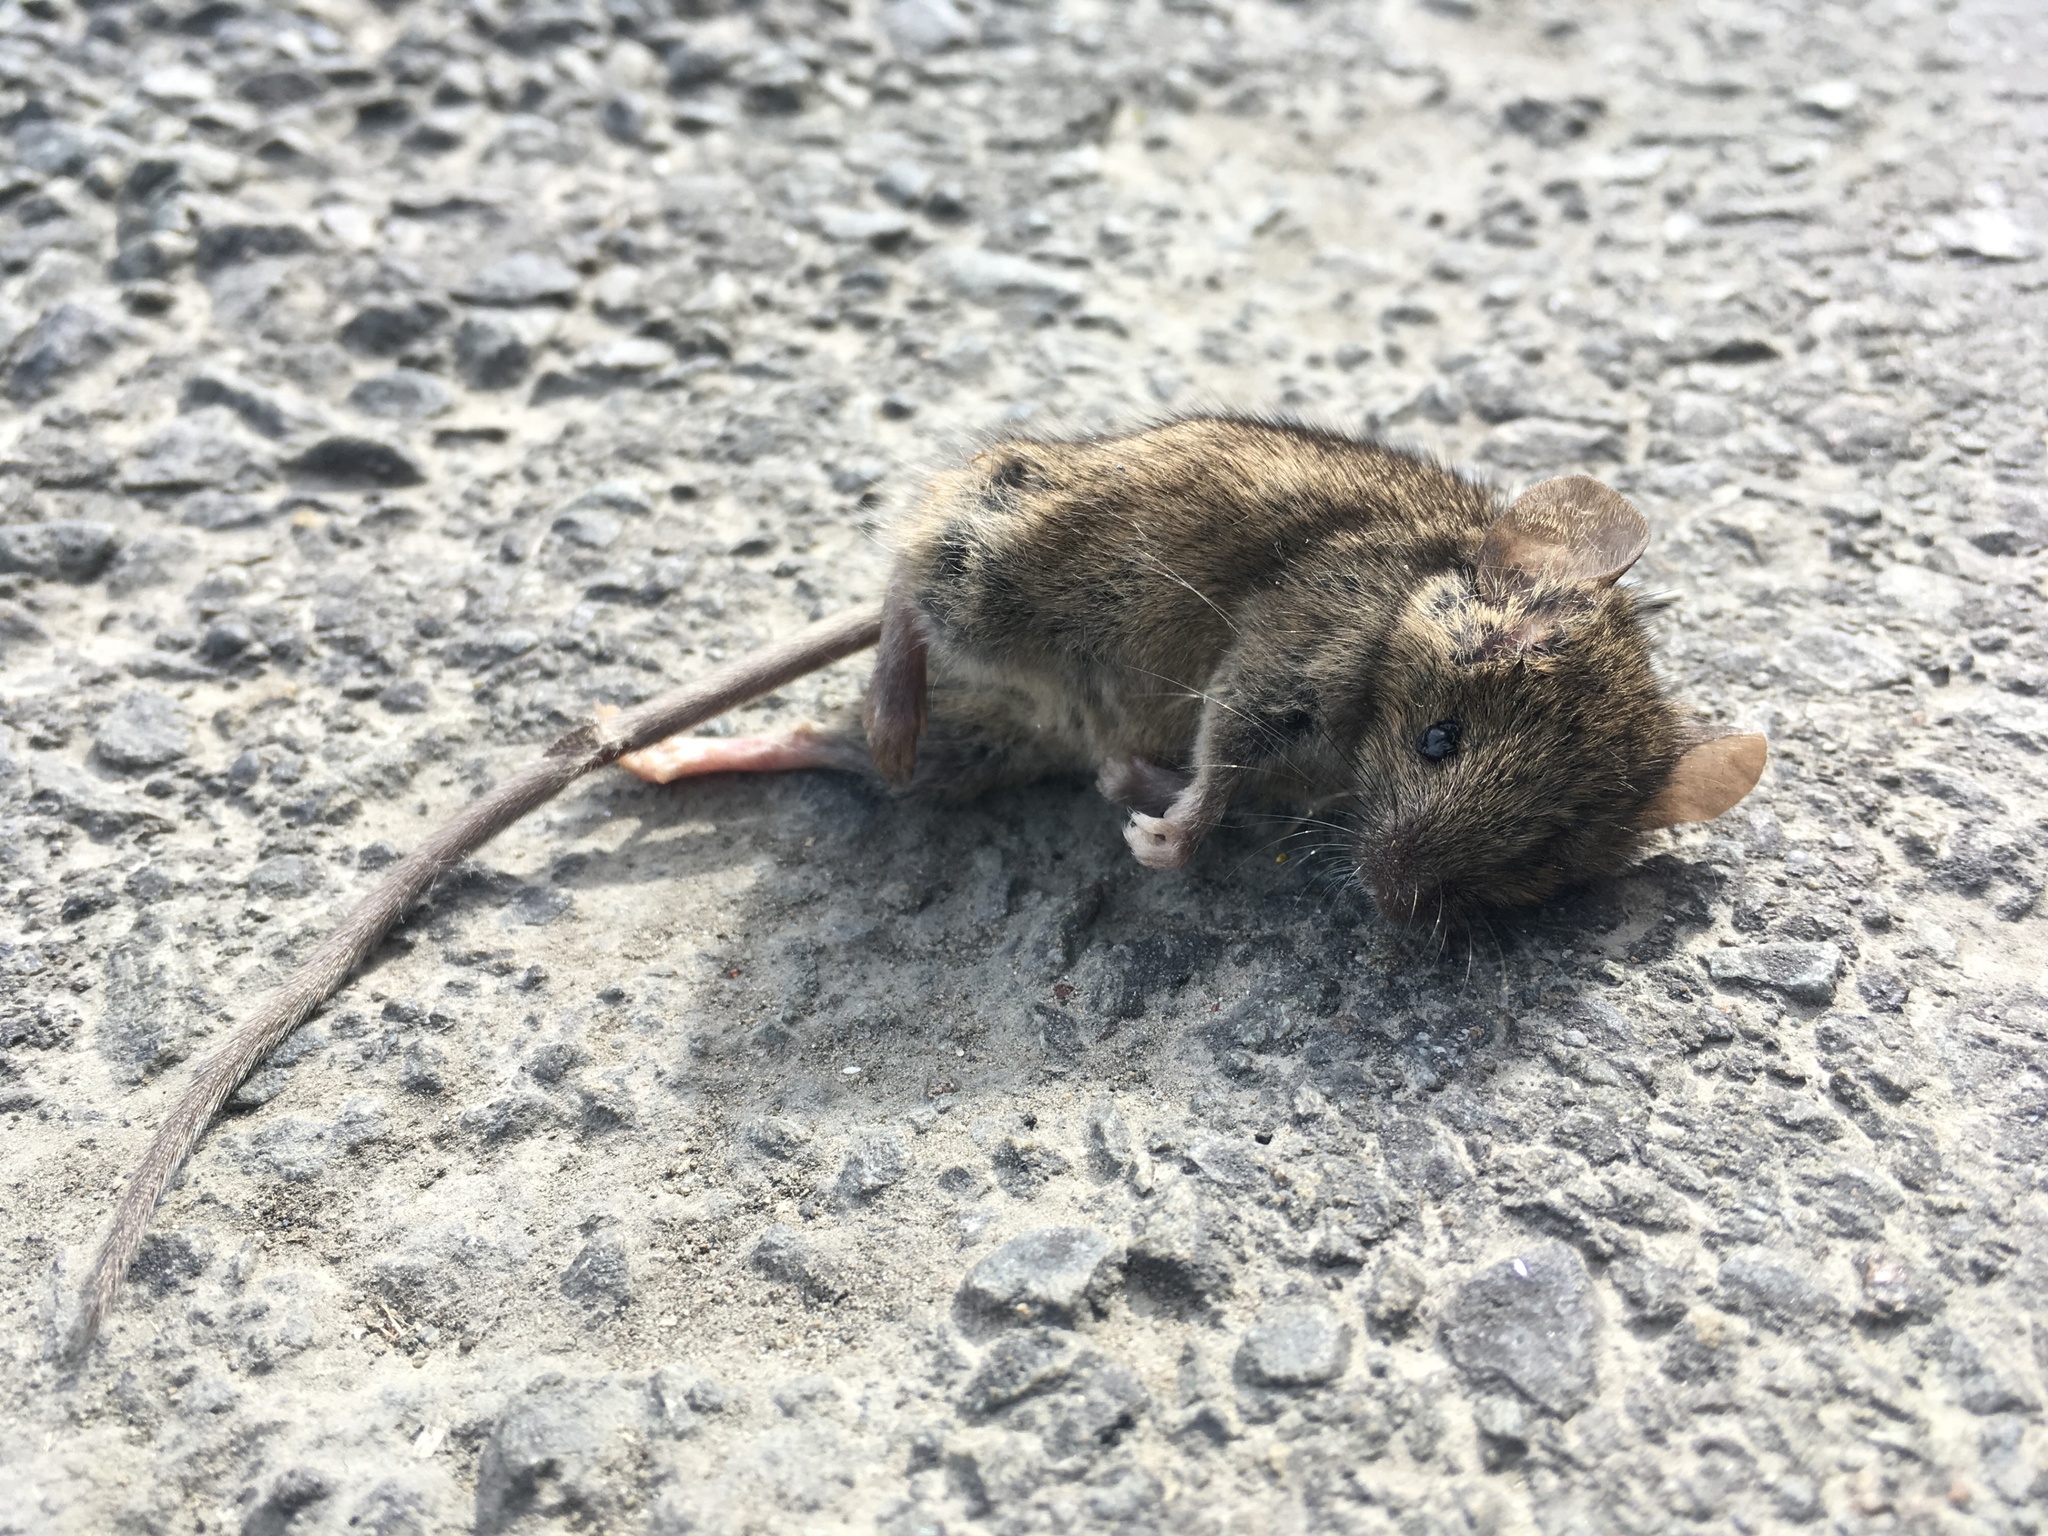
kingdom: Animalia
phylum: Chordata
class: Mammalia
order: Rodentia
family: Muridae
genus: Mus
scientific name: Mus musculus
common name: House mouse
